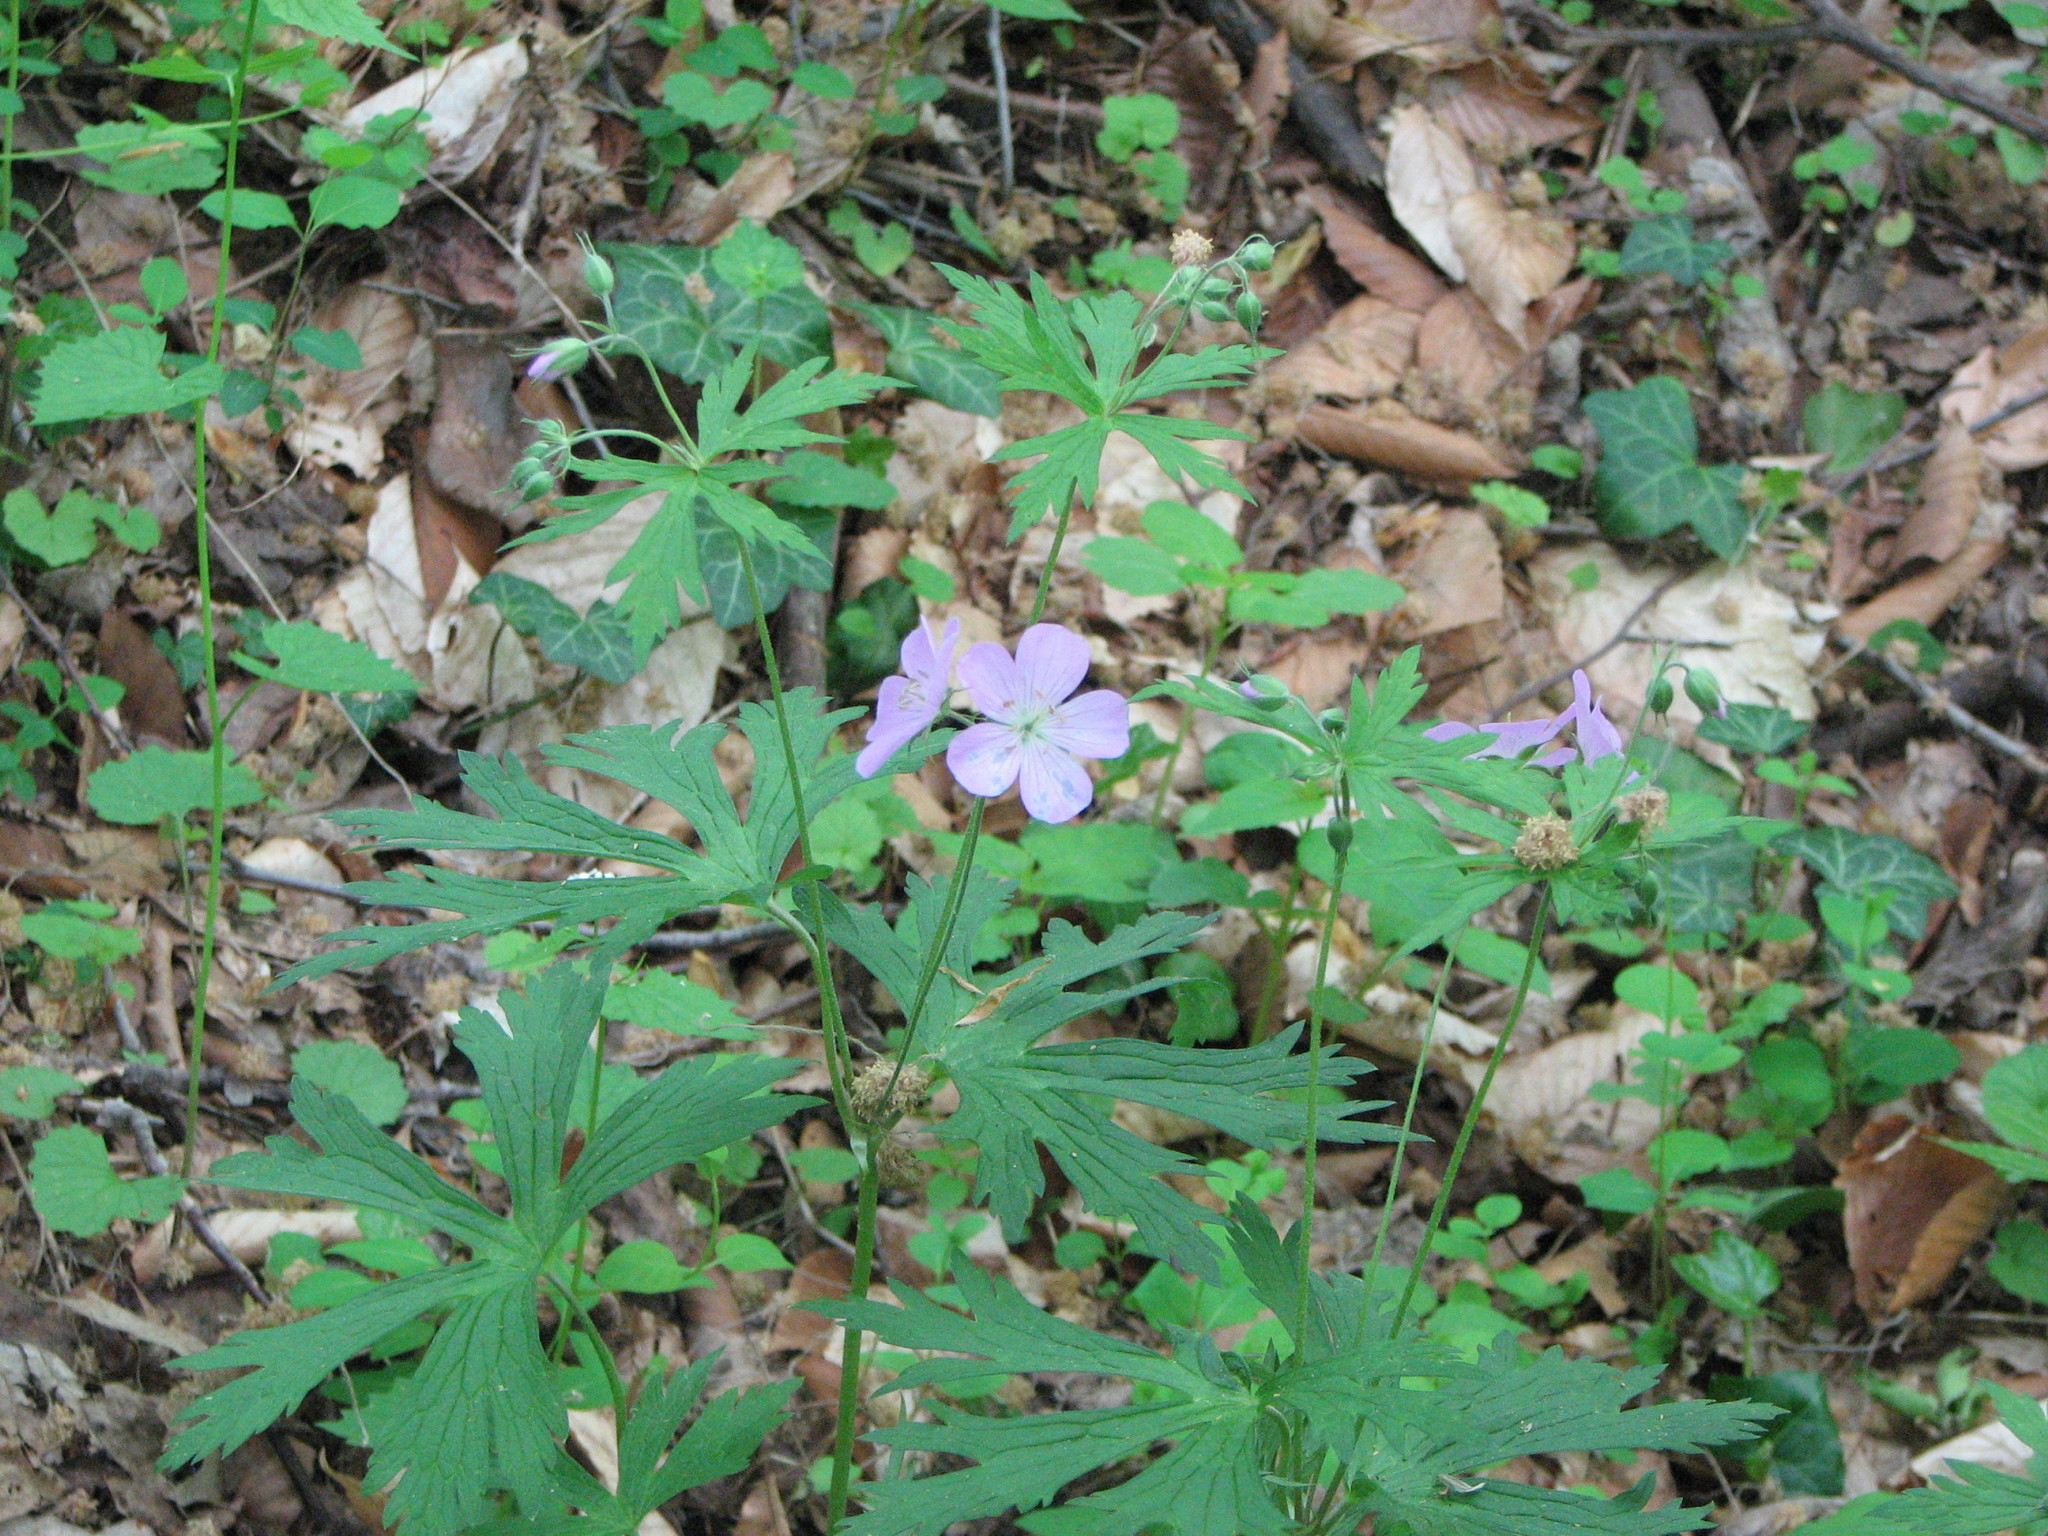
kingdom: Plantae
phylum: Tracheophyta
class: Magnoliopsida
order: Geraniales
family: Geraniaceae
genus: Geranium
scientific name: Geranium maculatum
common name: Spotted geranium
